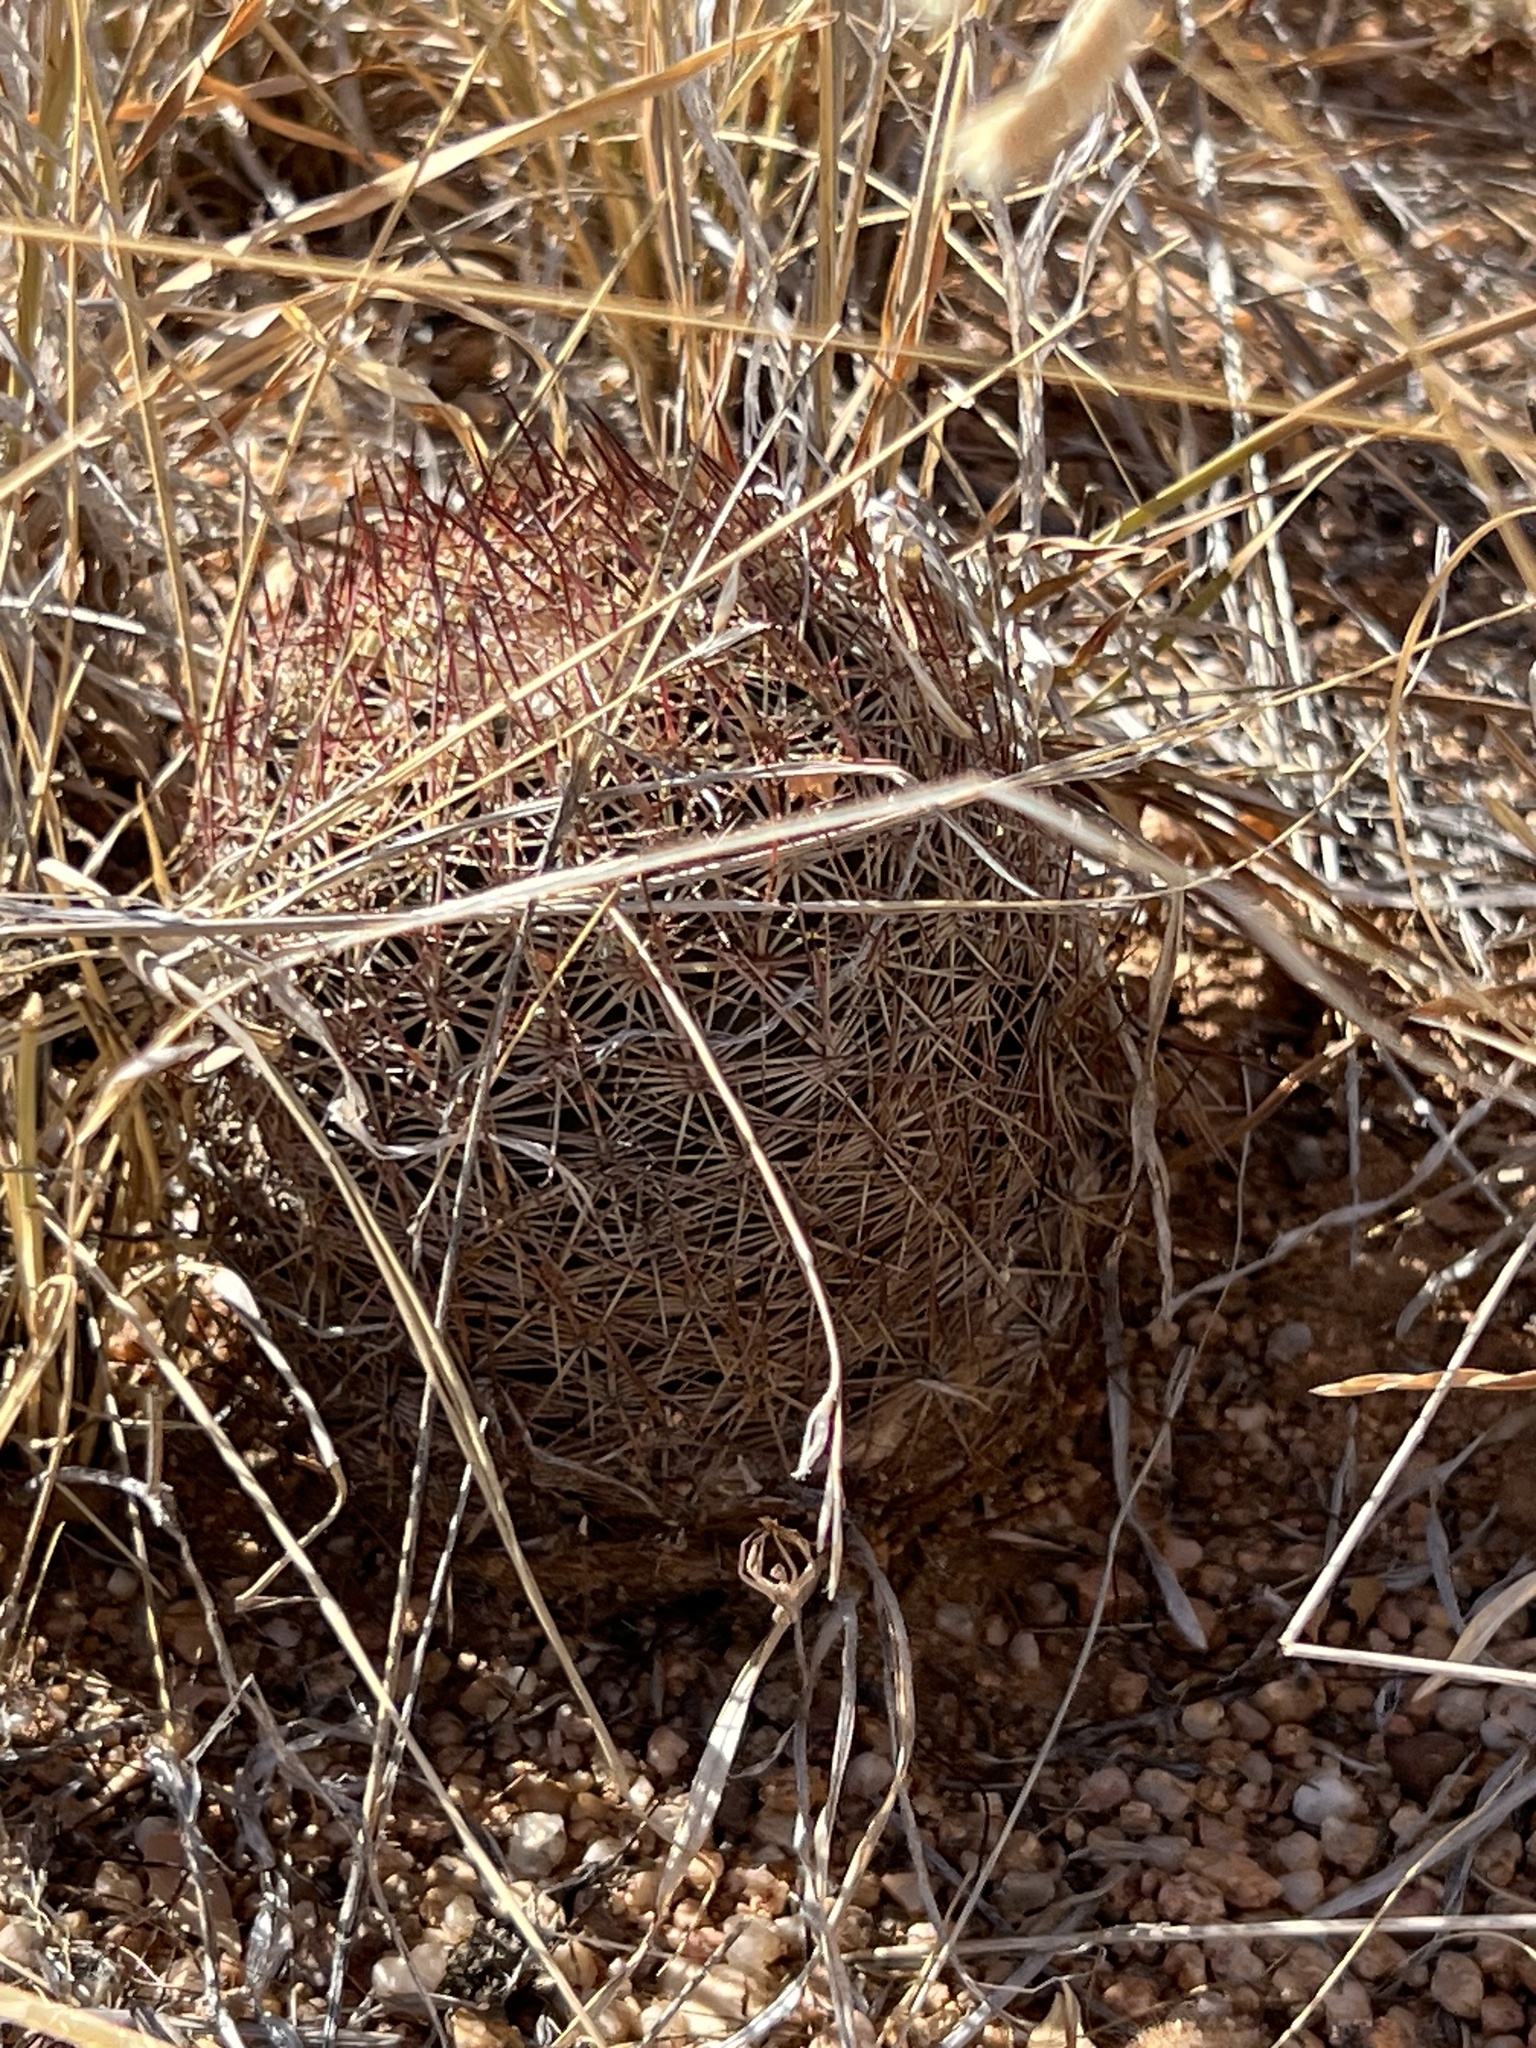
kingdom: Plantae
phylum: Tracheophyta
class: Magnoliopsida
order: Caryophyllales
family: Cactaceae
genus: Sclerocactus
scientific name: Sclerocactus johnsonii
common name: Eight-spine fishhook cactus
